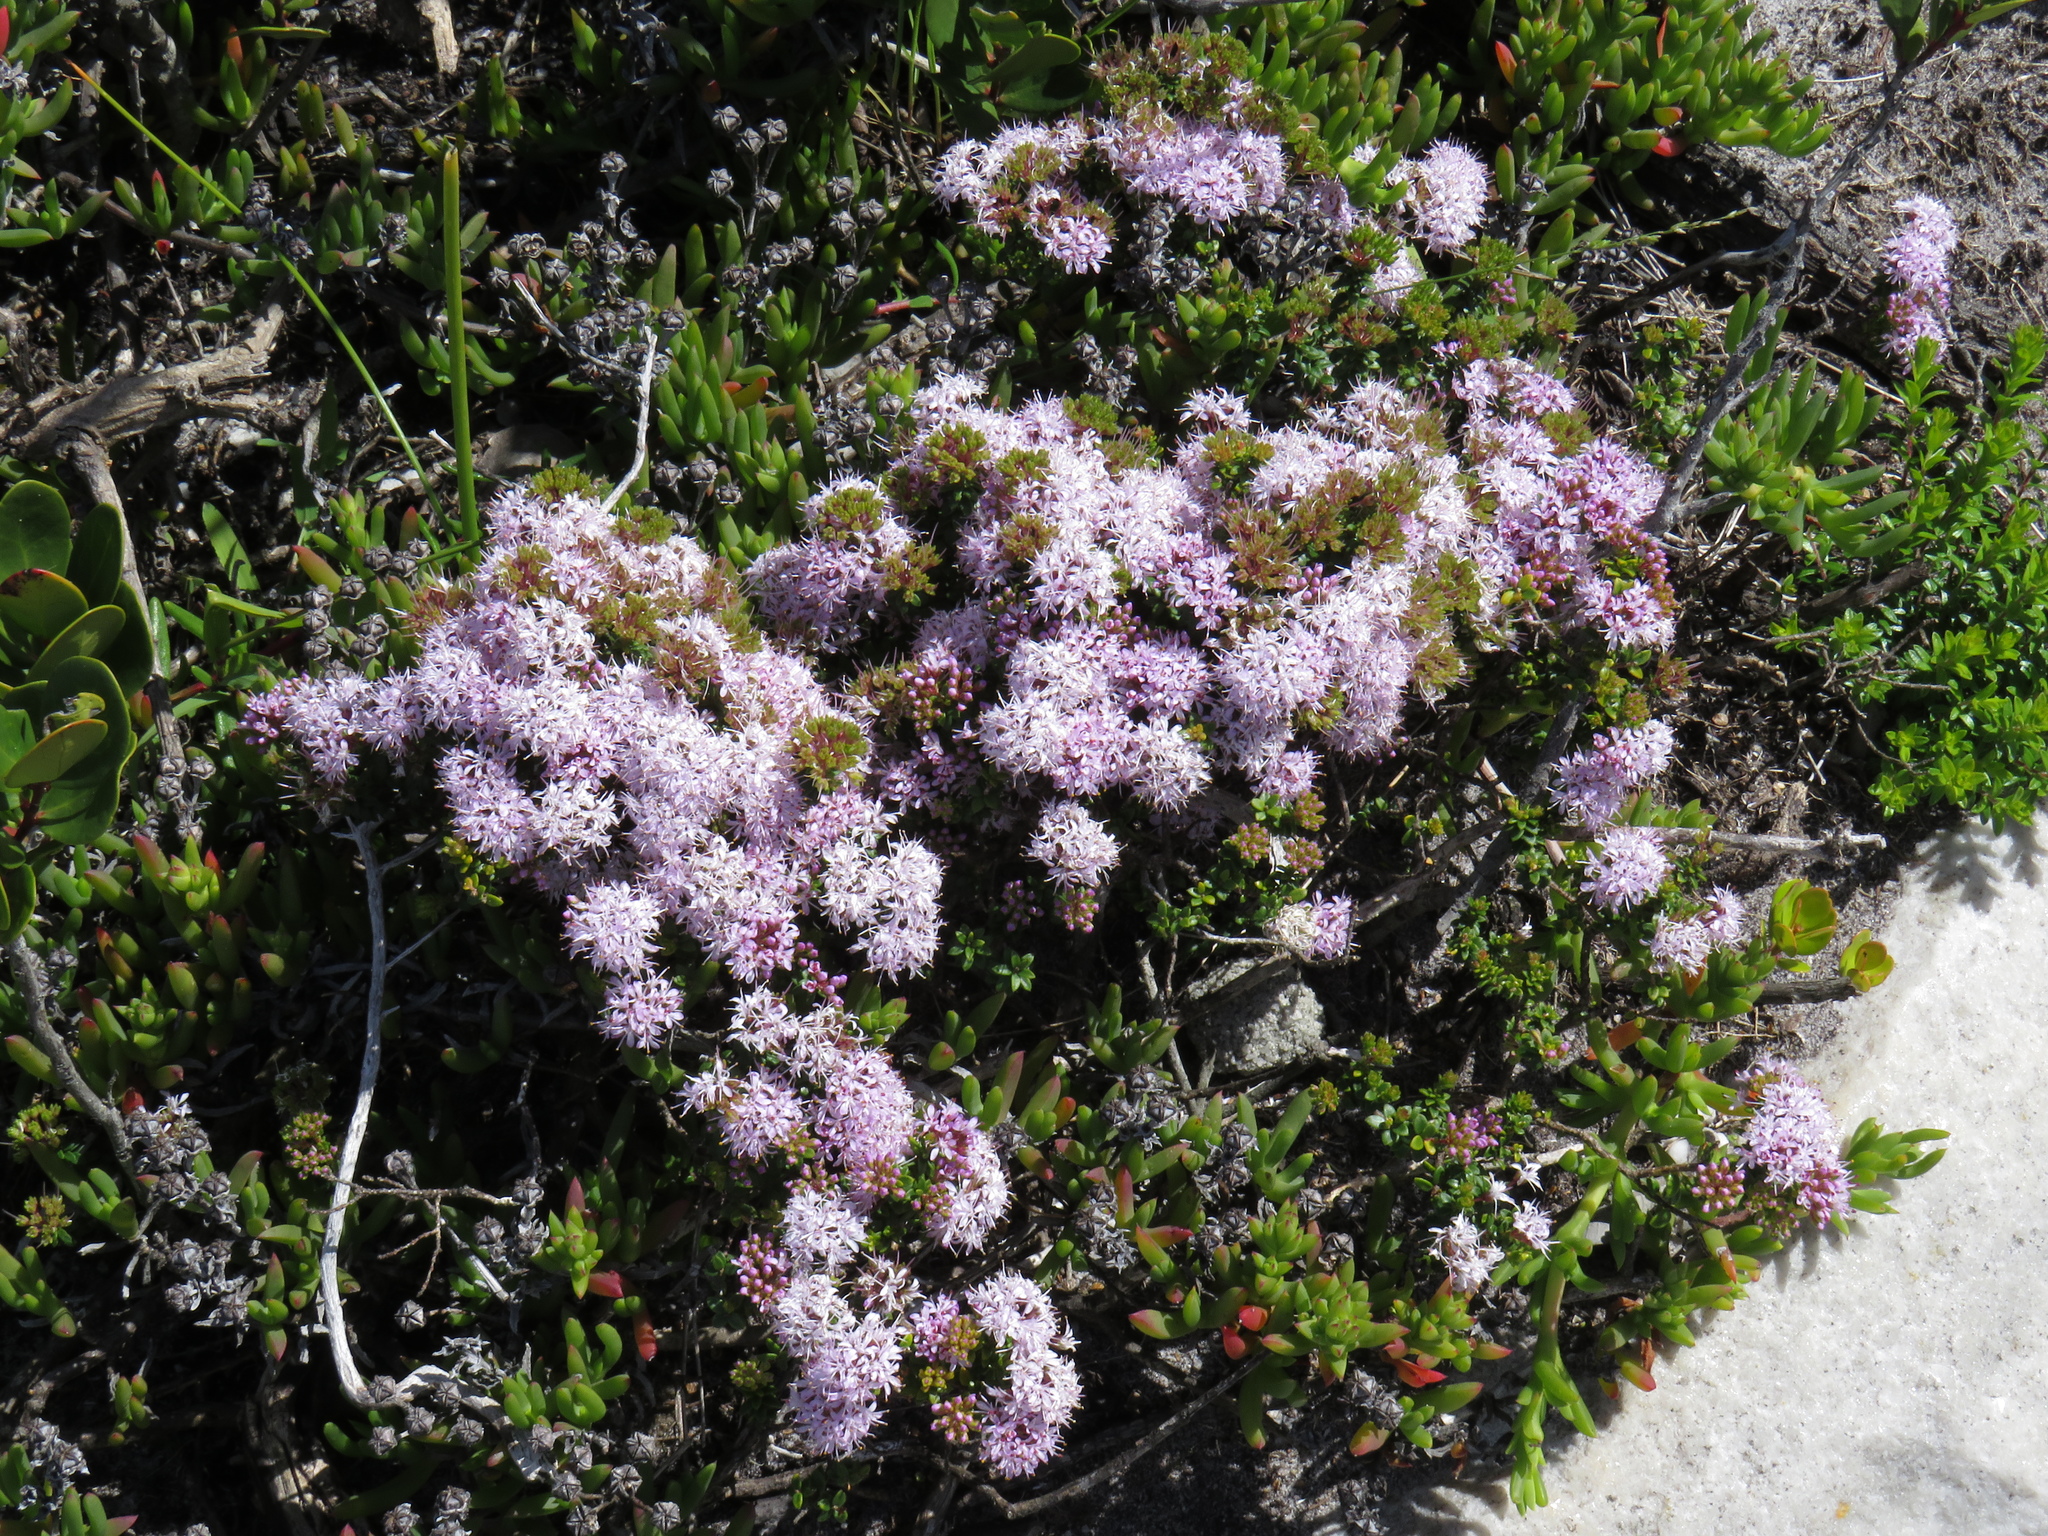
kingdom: Plantae
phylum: Tracheophyta
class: Magnoliopsida
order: Sapindales
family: Rutaceae
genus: Agathosma
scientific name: Agathosma lanceolata
